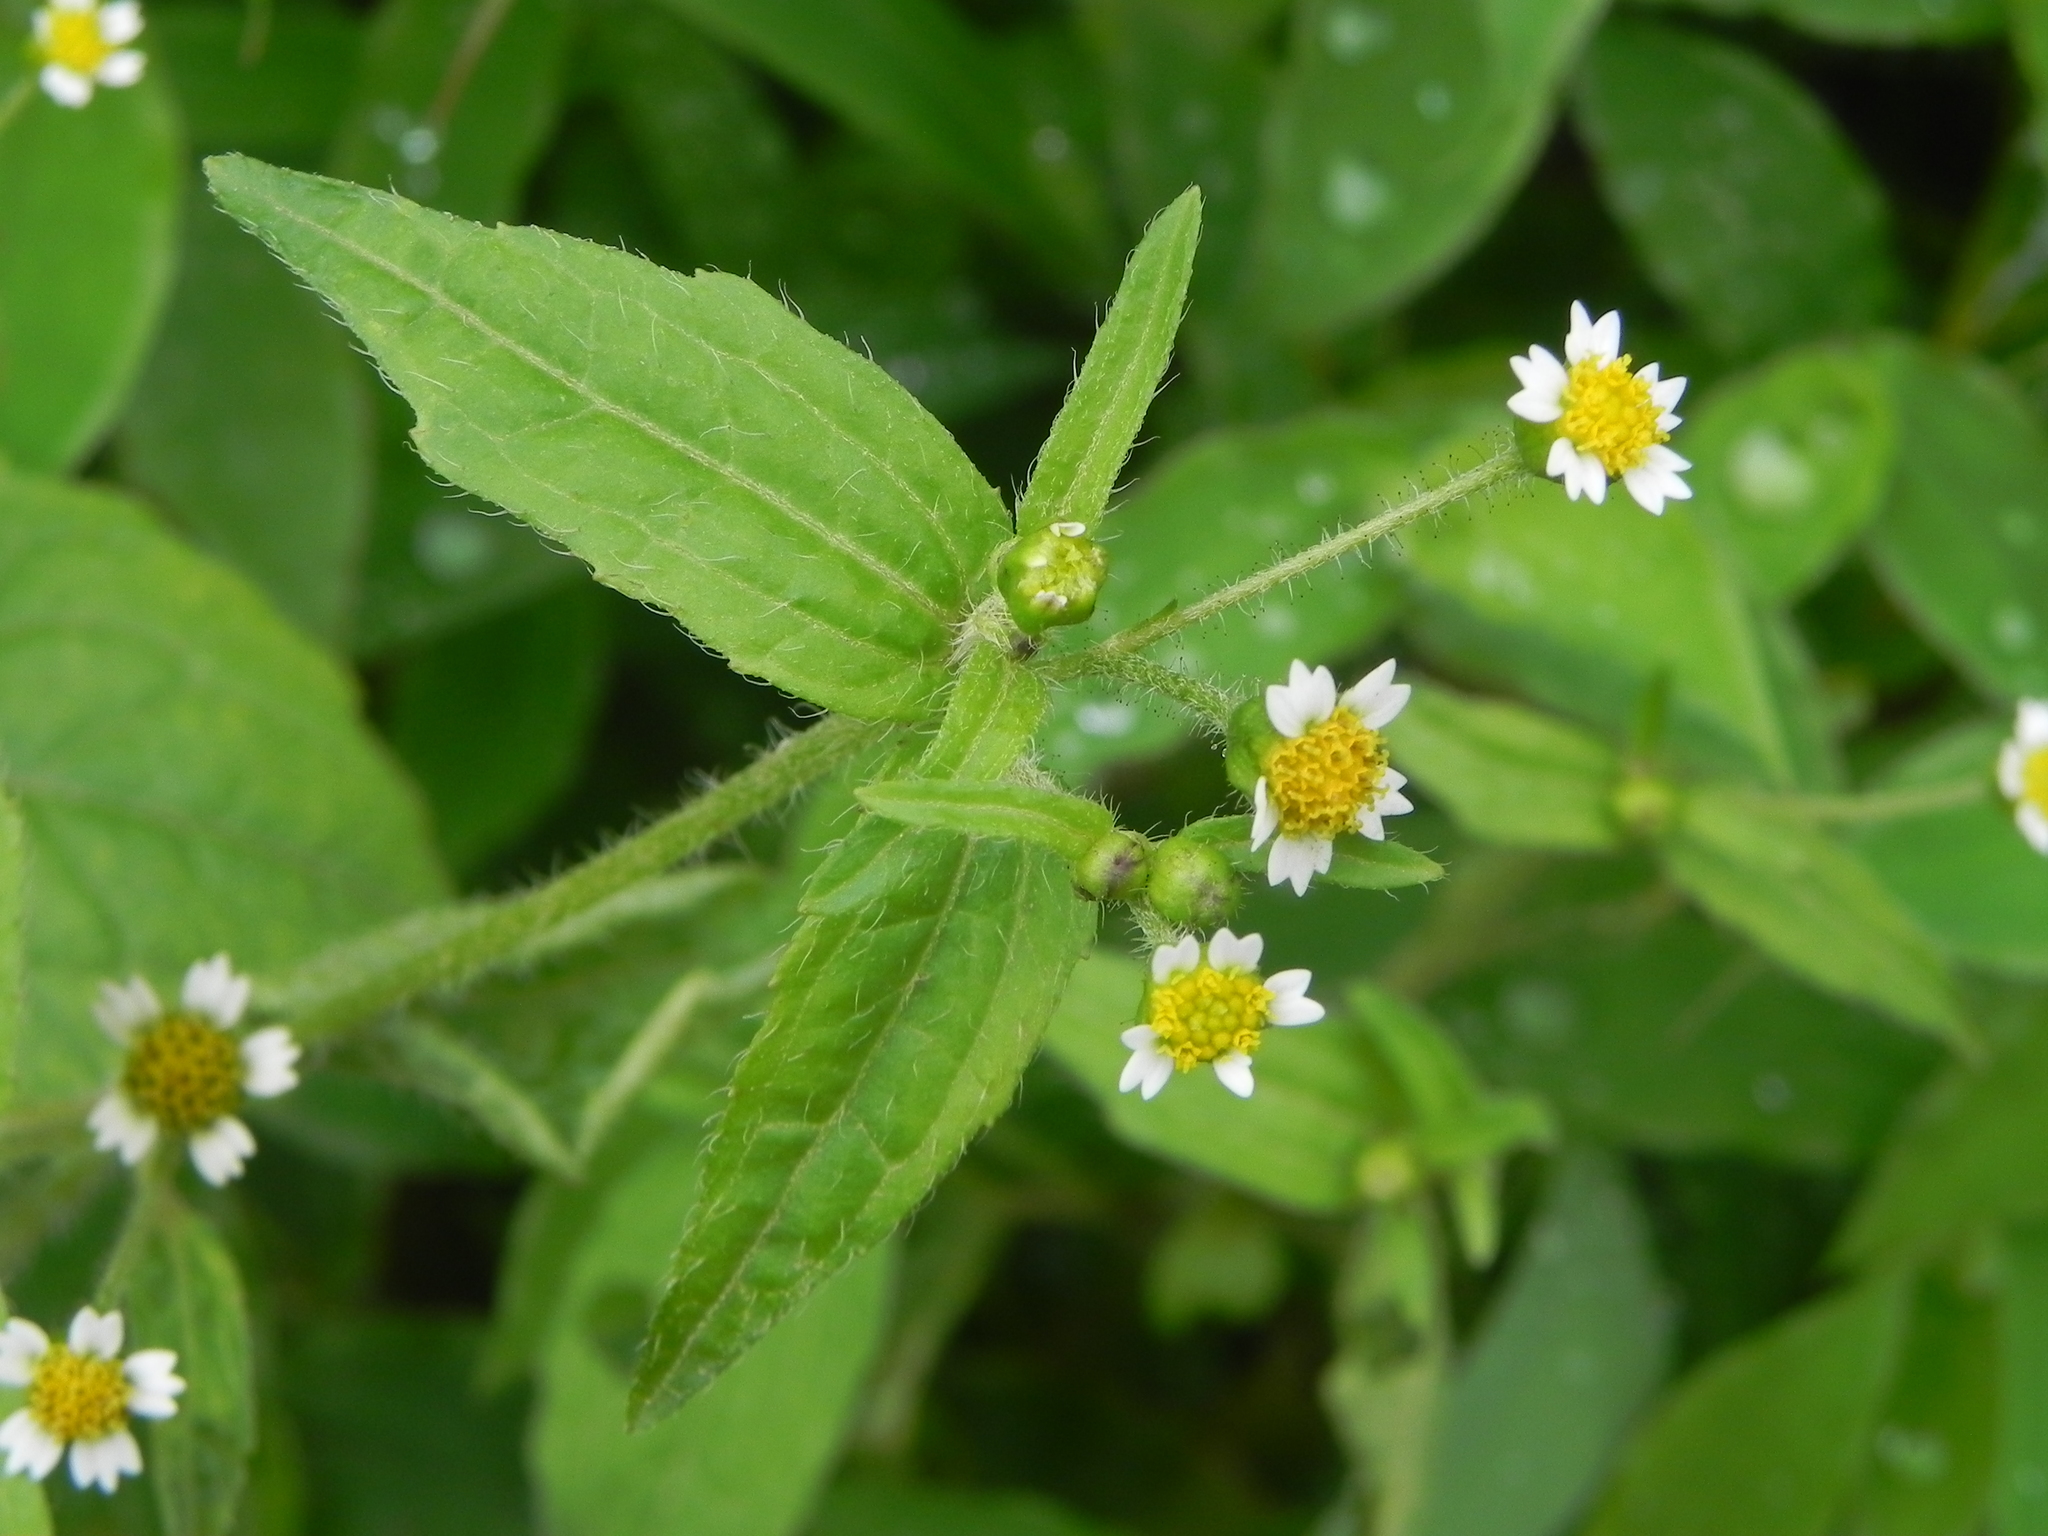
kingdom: Plantae
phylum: Tracheophyta
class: Magnoliopsida
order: Asterales
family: Asteraceae
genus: Galinsoga
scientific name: Galinsoga parviflora
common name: Gallant soldier
